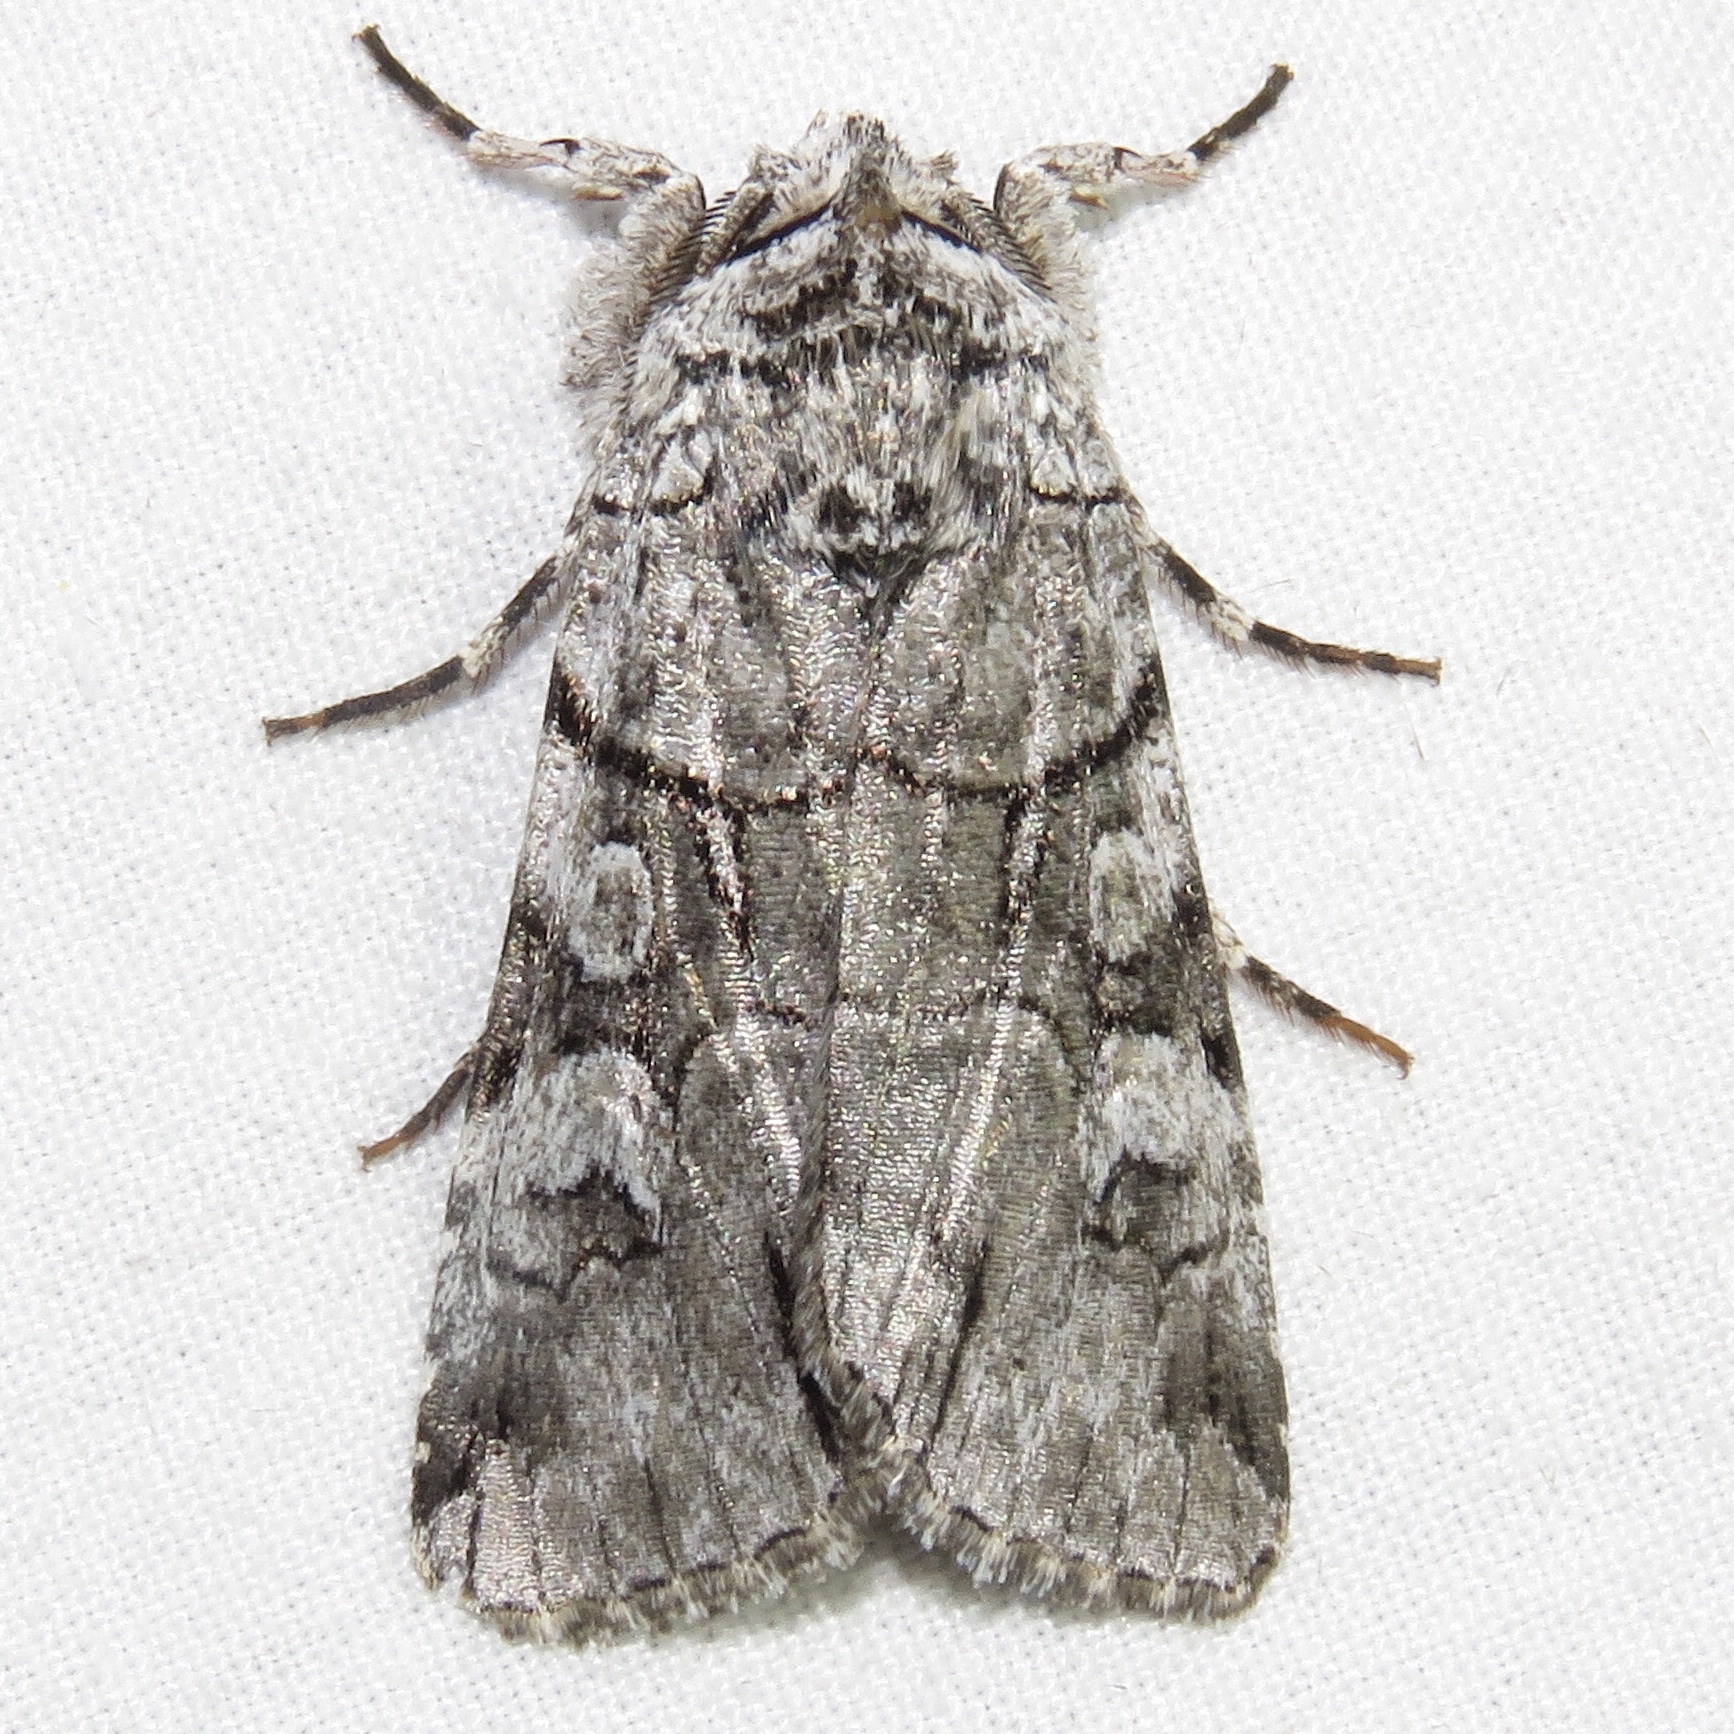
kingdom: Animalia
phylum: Arthropoda
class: Insecta
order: Lepidoptera
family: Noctuidae
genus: Sympistis
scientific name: Sympistis chionanthi
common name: Fringe-tree sallow
